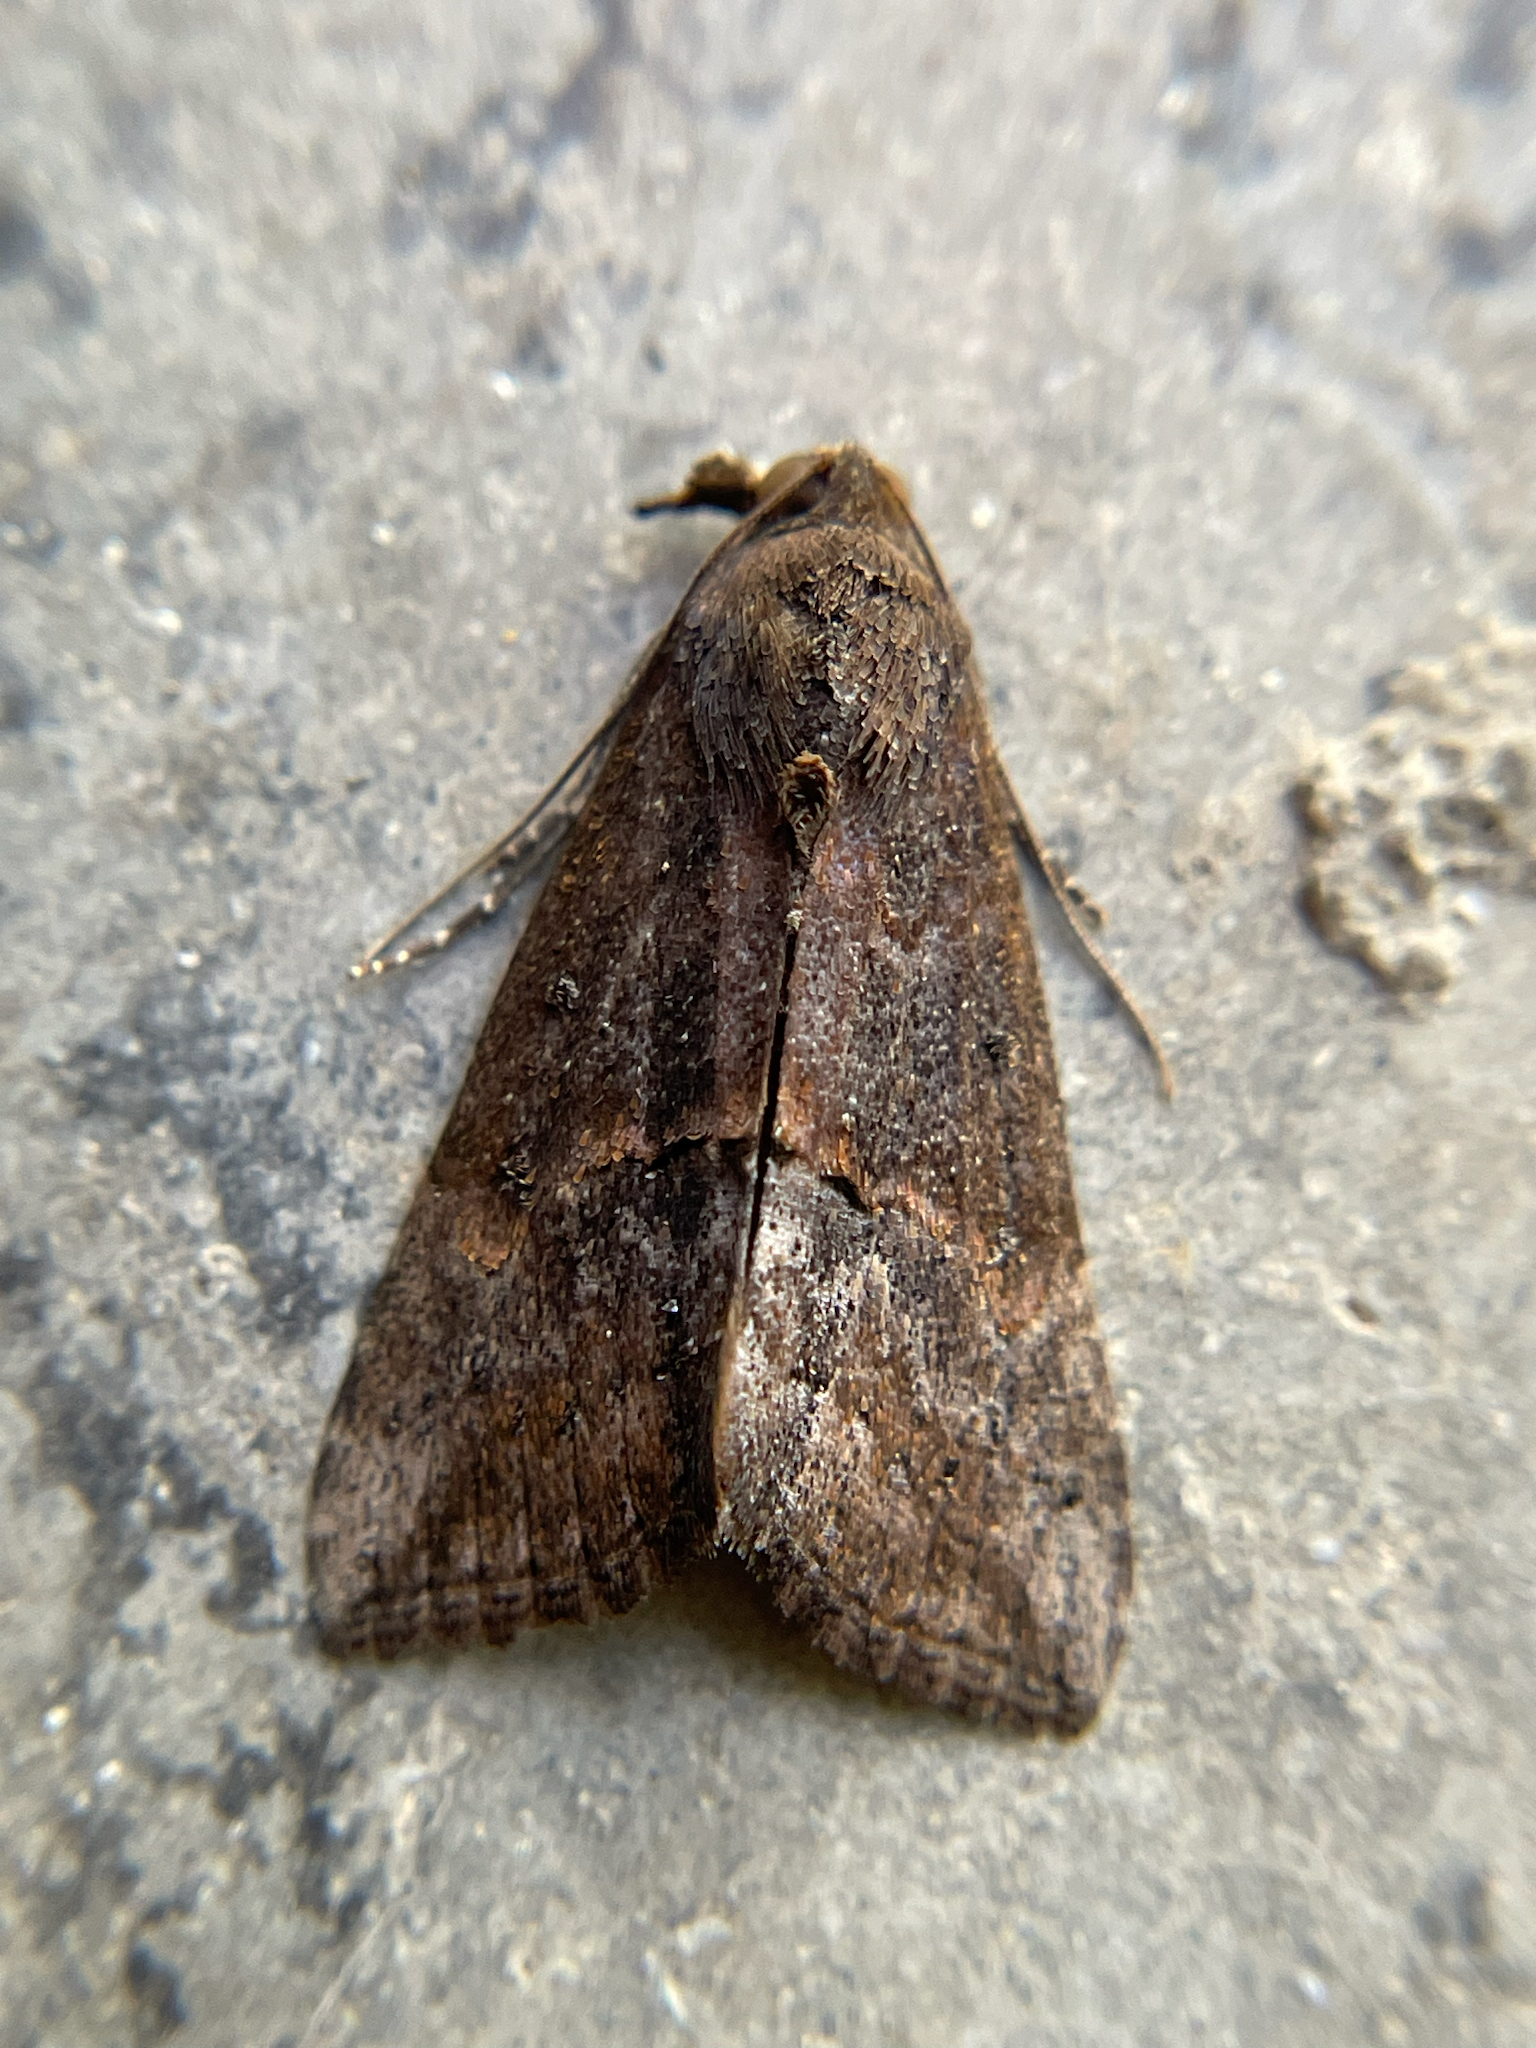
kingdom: Animalia
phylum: Arthropoda
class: Insecta
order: Lepidoptera
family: Erebidae
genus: Hypena
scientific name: Hypena scabra
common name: Green cloverworm
